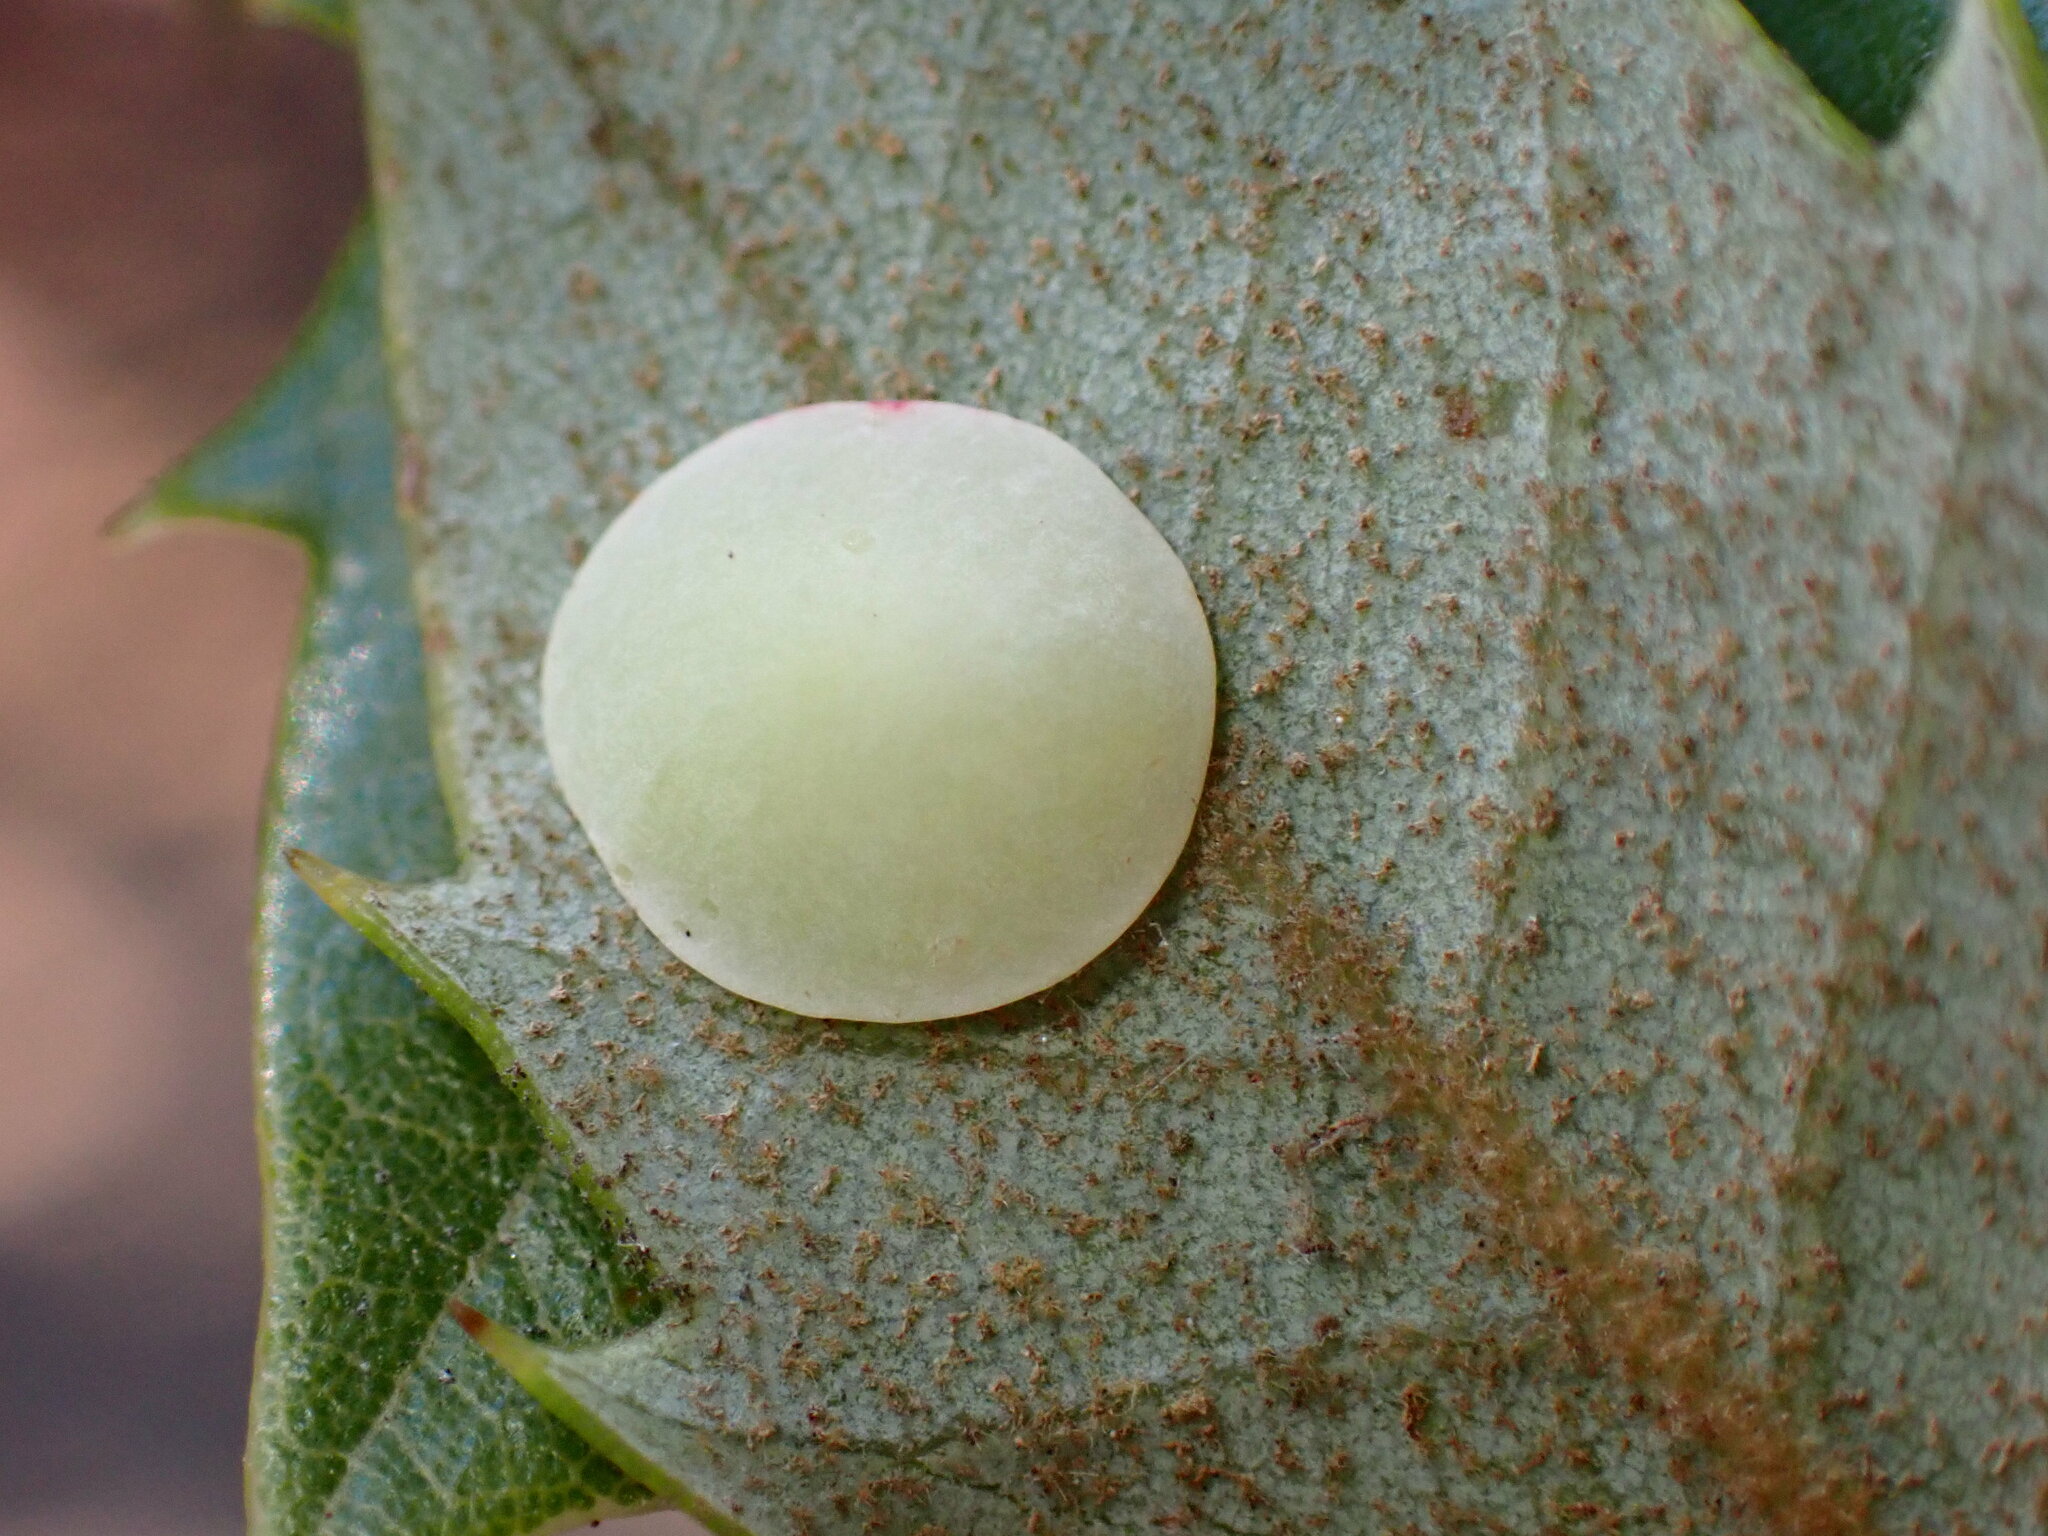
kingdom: Animalia
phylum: Arthropoda
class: Insecta
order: Hymenoptera
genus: Paracraspis
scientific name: Paracraspis
